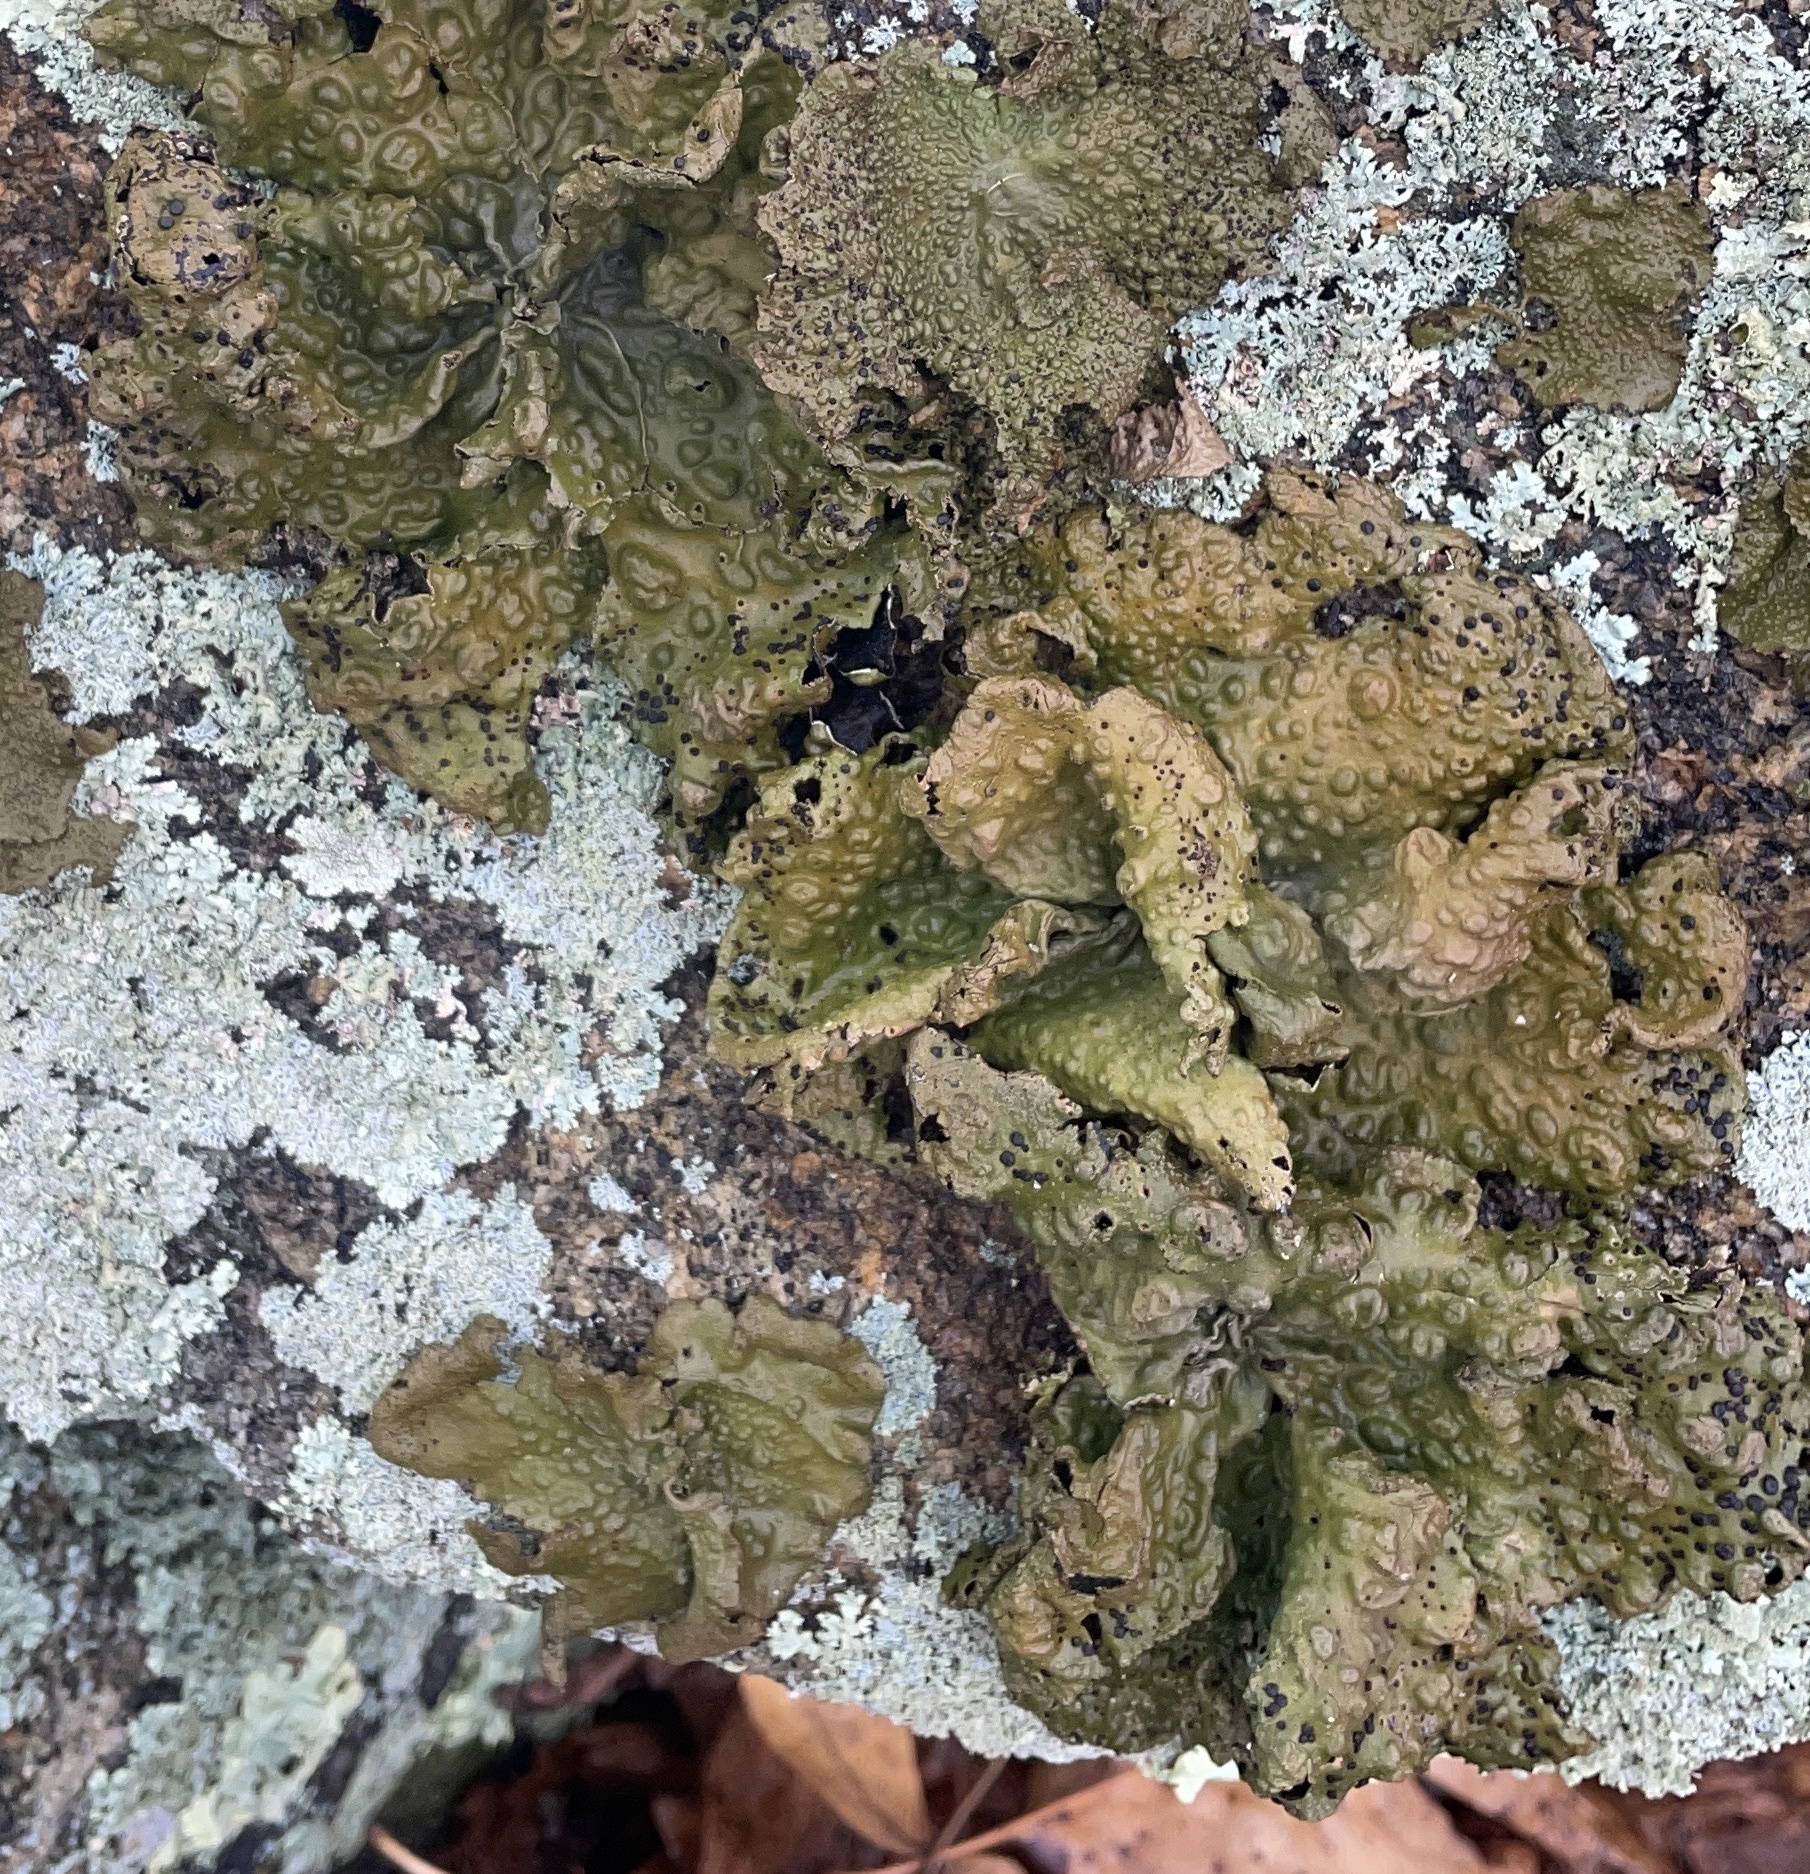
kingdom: Fungi
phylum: Ascomycota
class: Lecanoromycetes
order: Umbilicariales
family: Umbilicariaceae
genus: Lasallia
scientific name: Lasallia pensylvanica
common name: Blackened toadskin lichen
